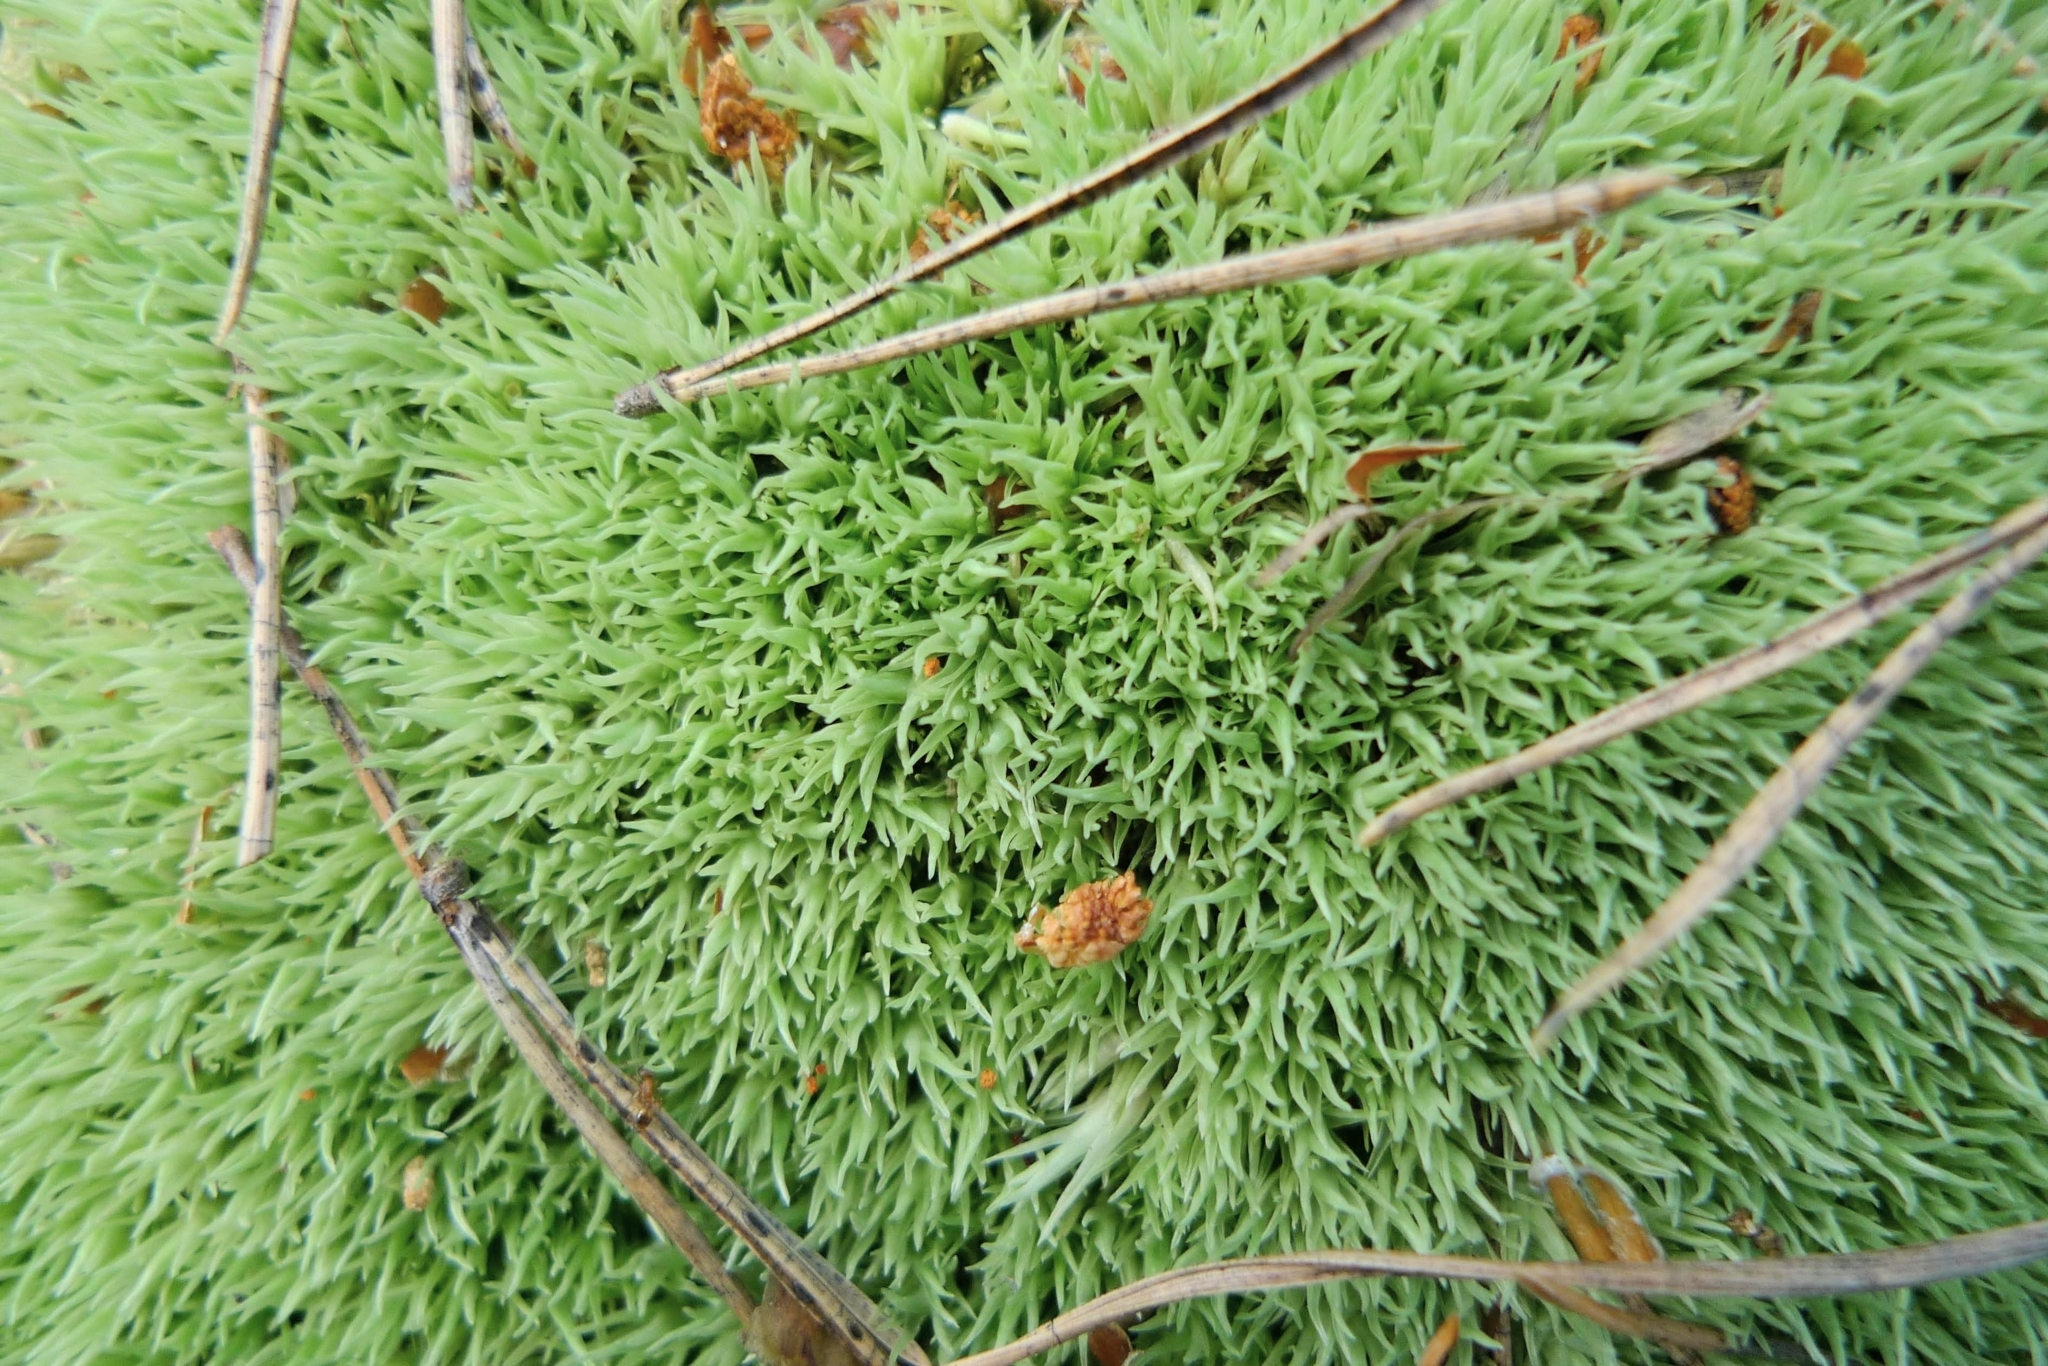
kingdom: Plantae
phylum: Bryophyta
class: Bryopsida
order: Dicranales
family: Leucobryaceae
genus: Leucobryum
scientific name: Leucobryum glaucum
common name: Large white-moss
